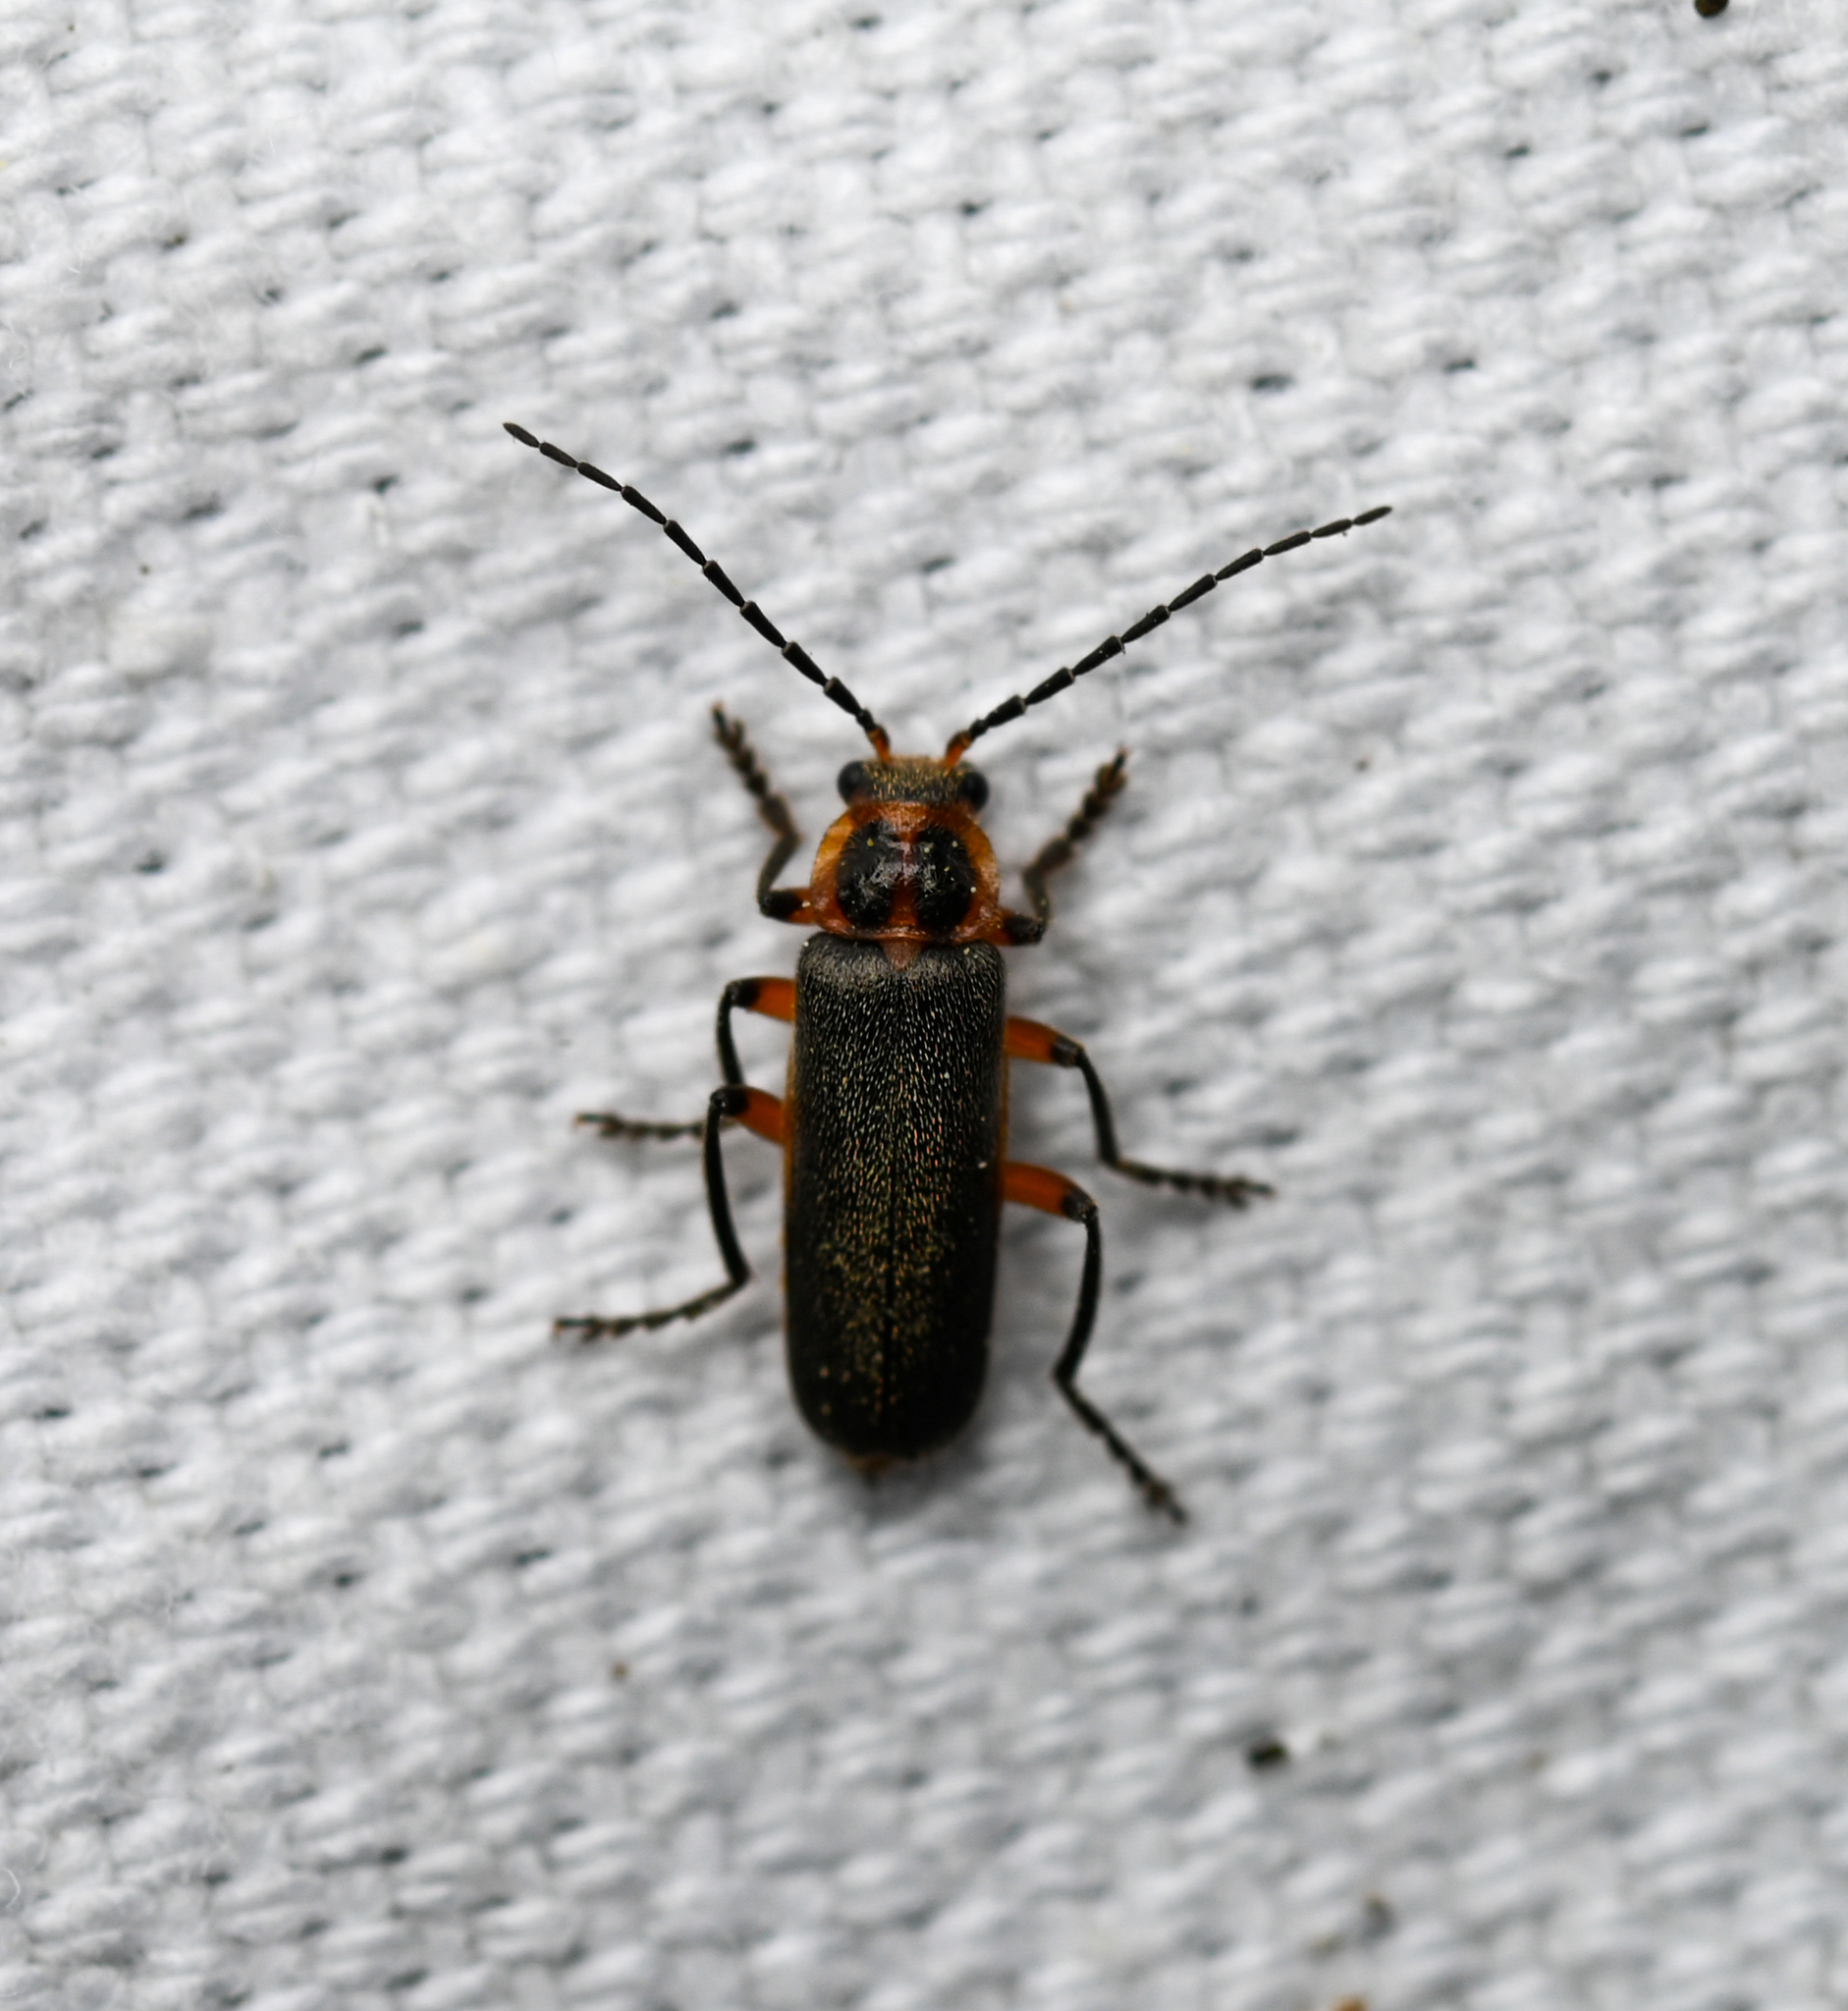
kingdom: Animalia
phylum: Arthropoda
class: Insecta
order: Coleoptera
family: Cantharidae
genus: Atalantycha
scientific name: Atalantycha bilineata
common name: Two-lined leatherwing
